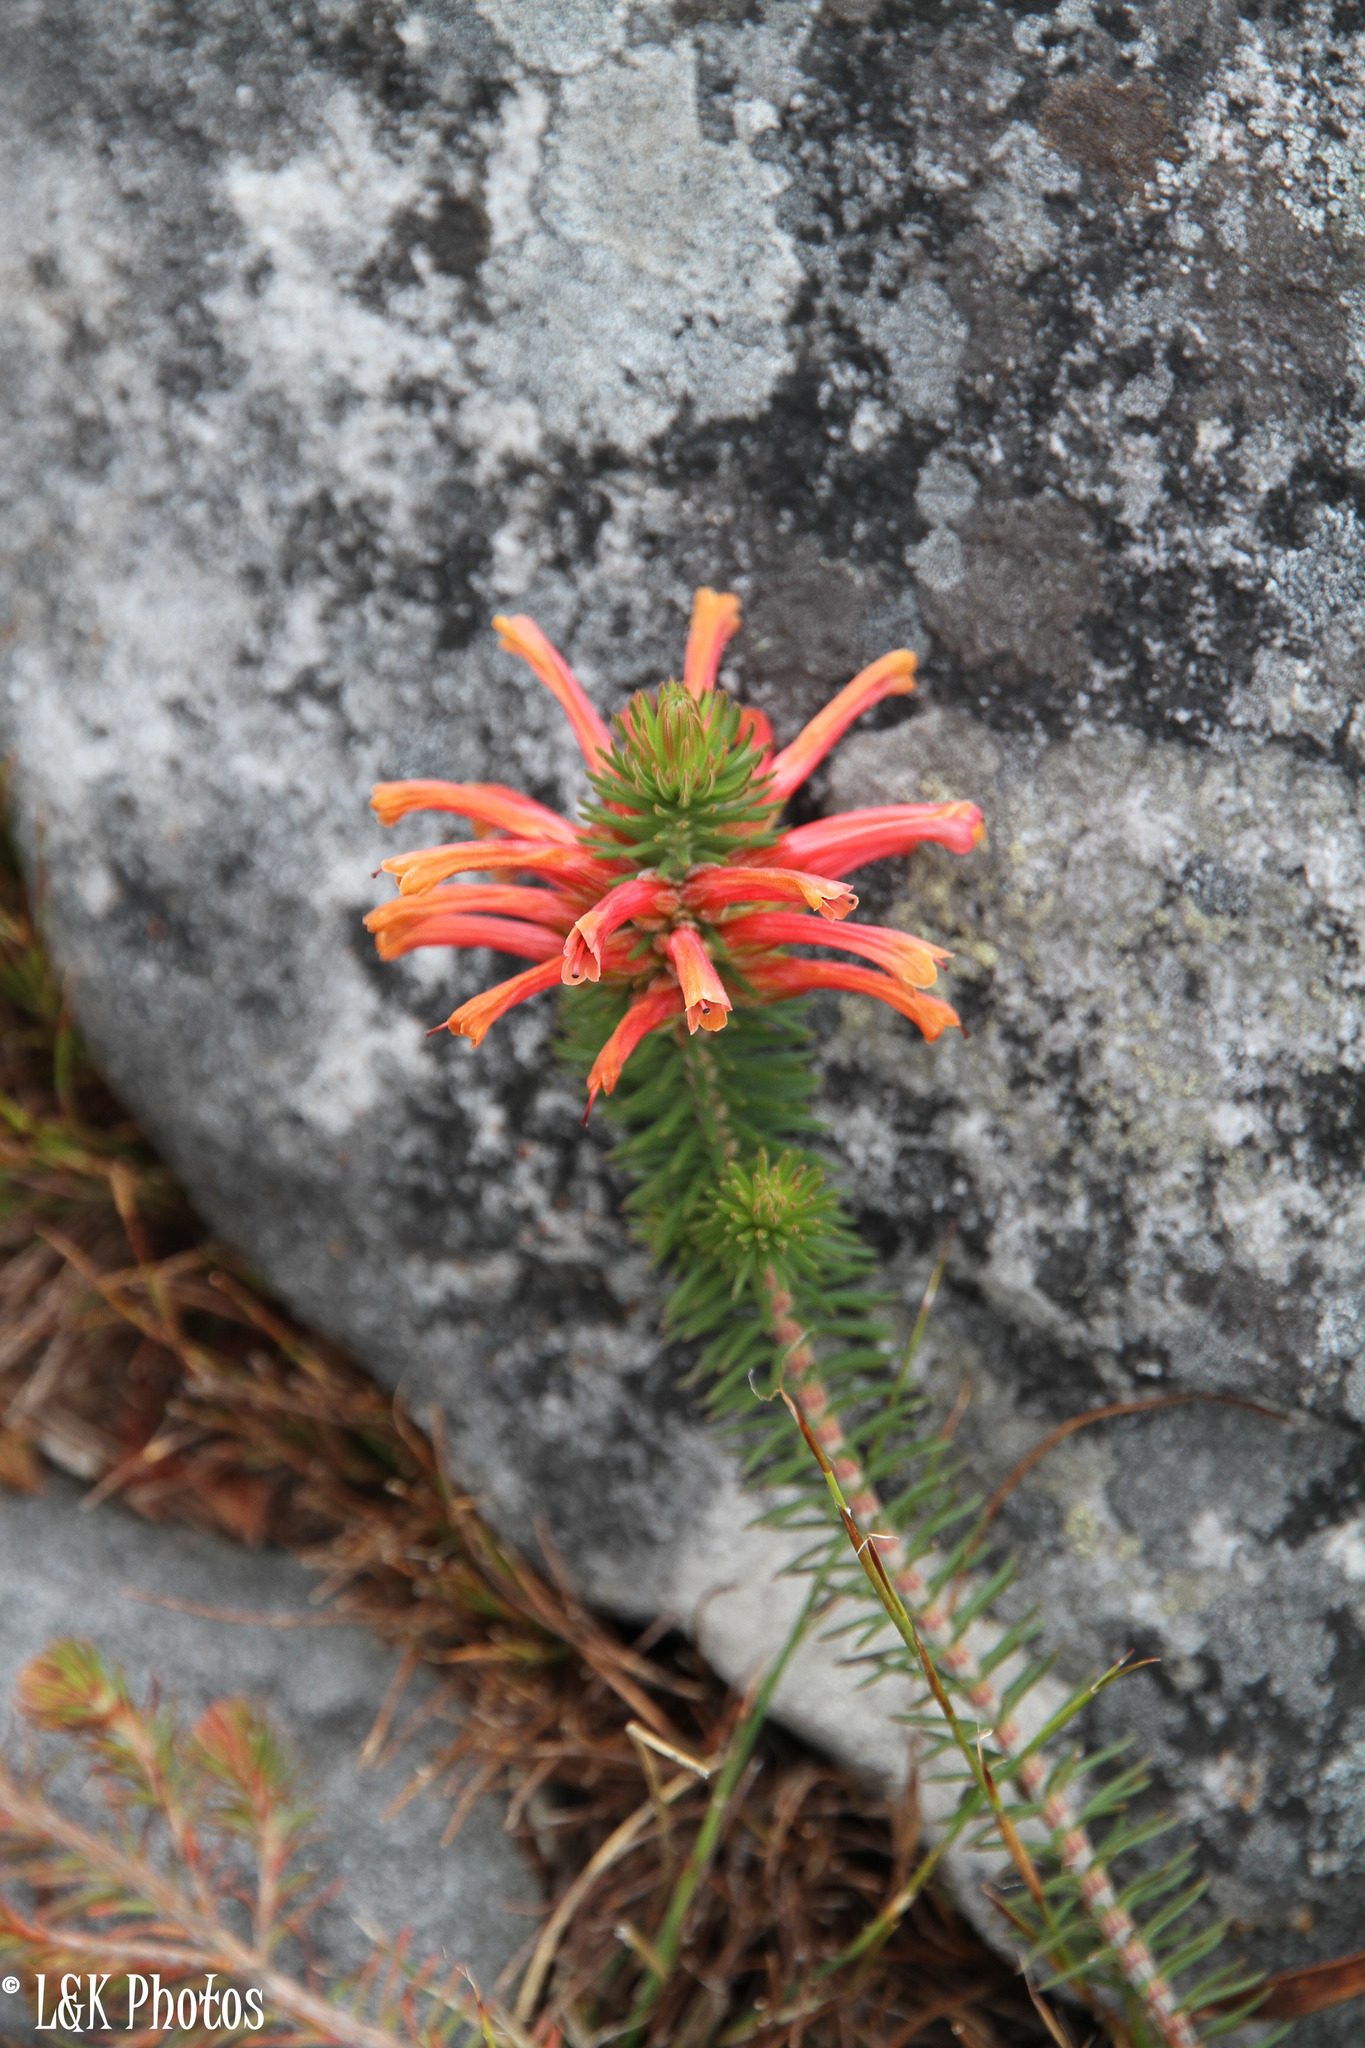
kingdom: Plantae
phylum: Tracheophyta
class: Magnoliopsida
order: Ericales
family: Ericaceae
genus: Erica
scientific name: Erica abietina
